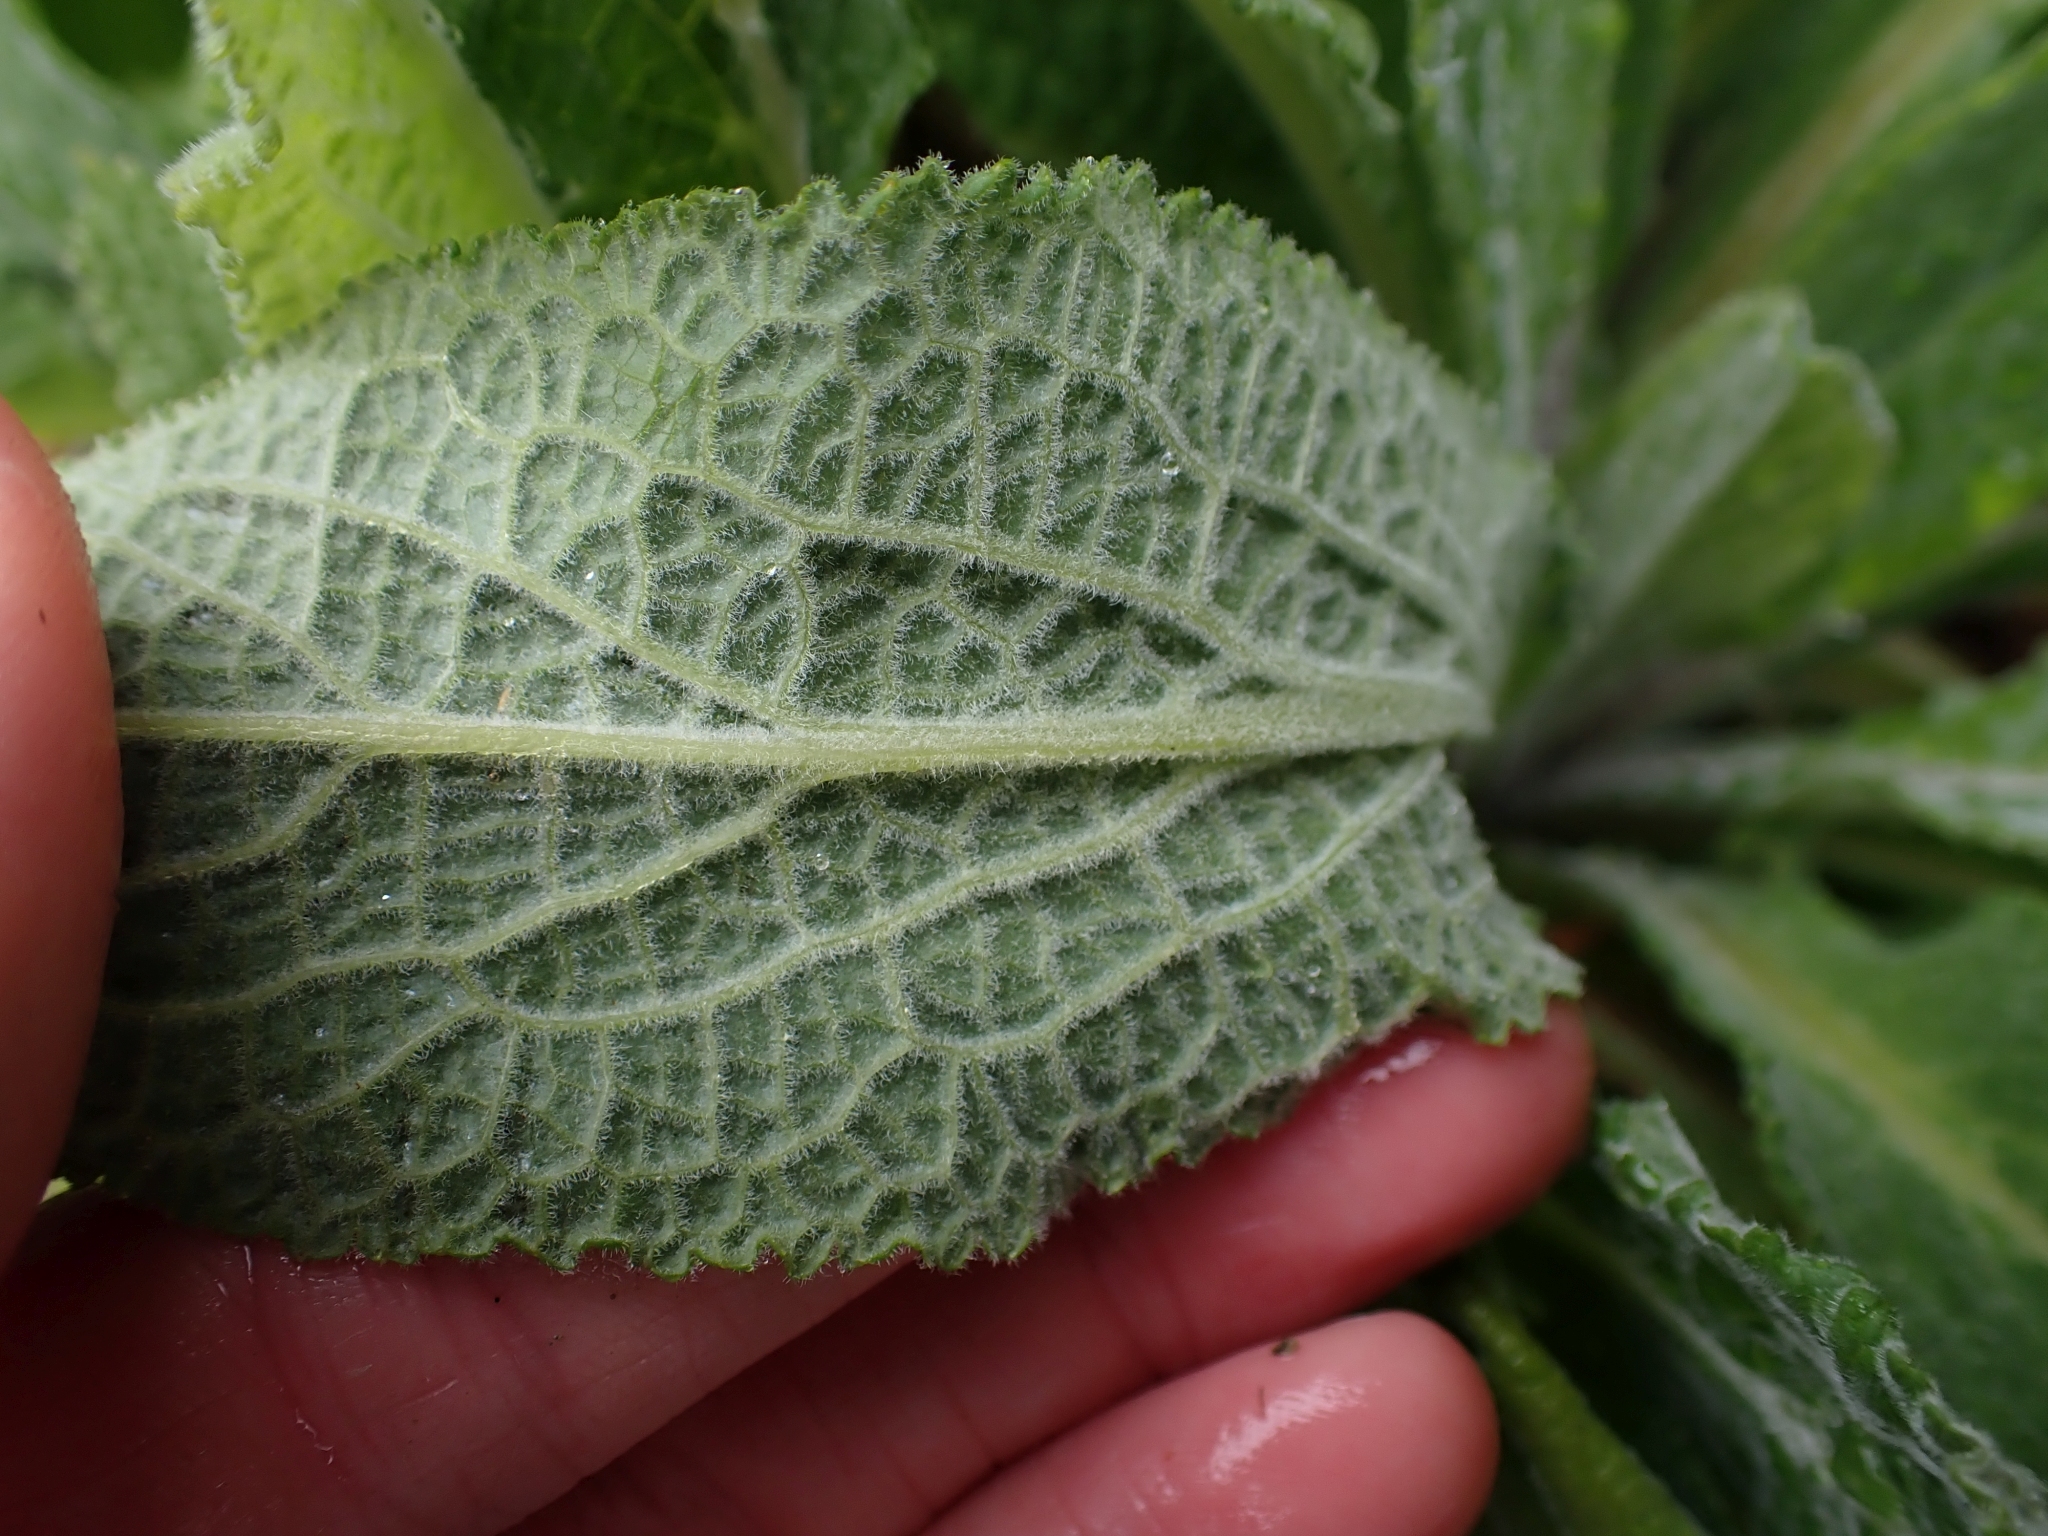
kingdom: Plantae
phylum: Tracheophyta
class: Magnoliopsida
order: Lamiales
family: Plantaginaceae
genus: Digitalis
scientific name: Digitalis purpurea
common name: Foxglove
